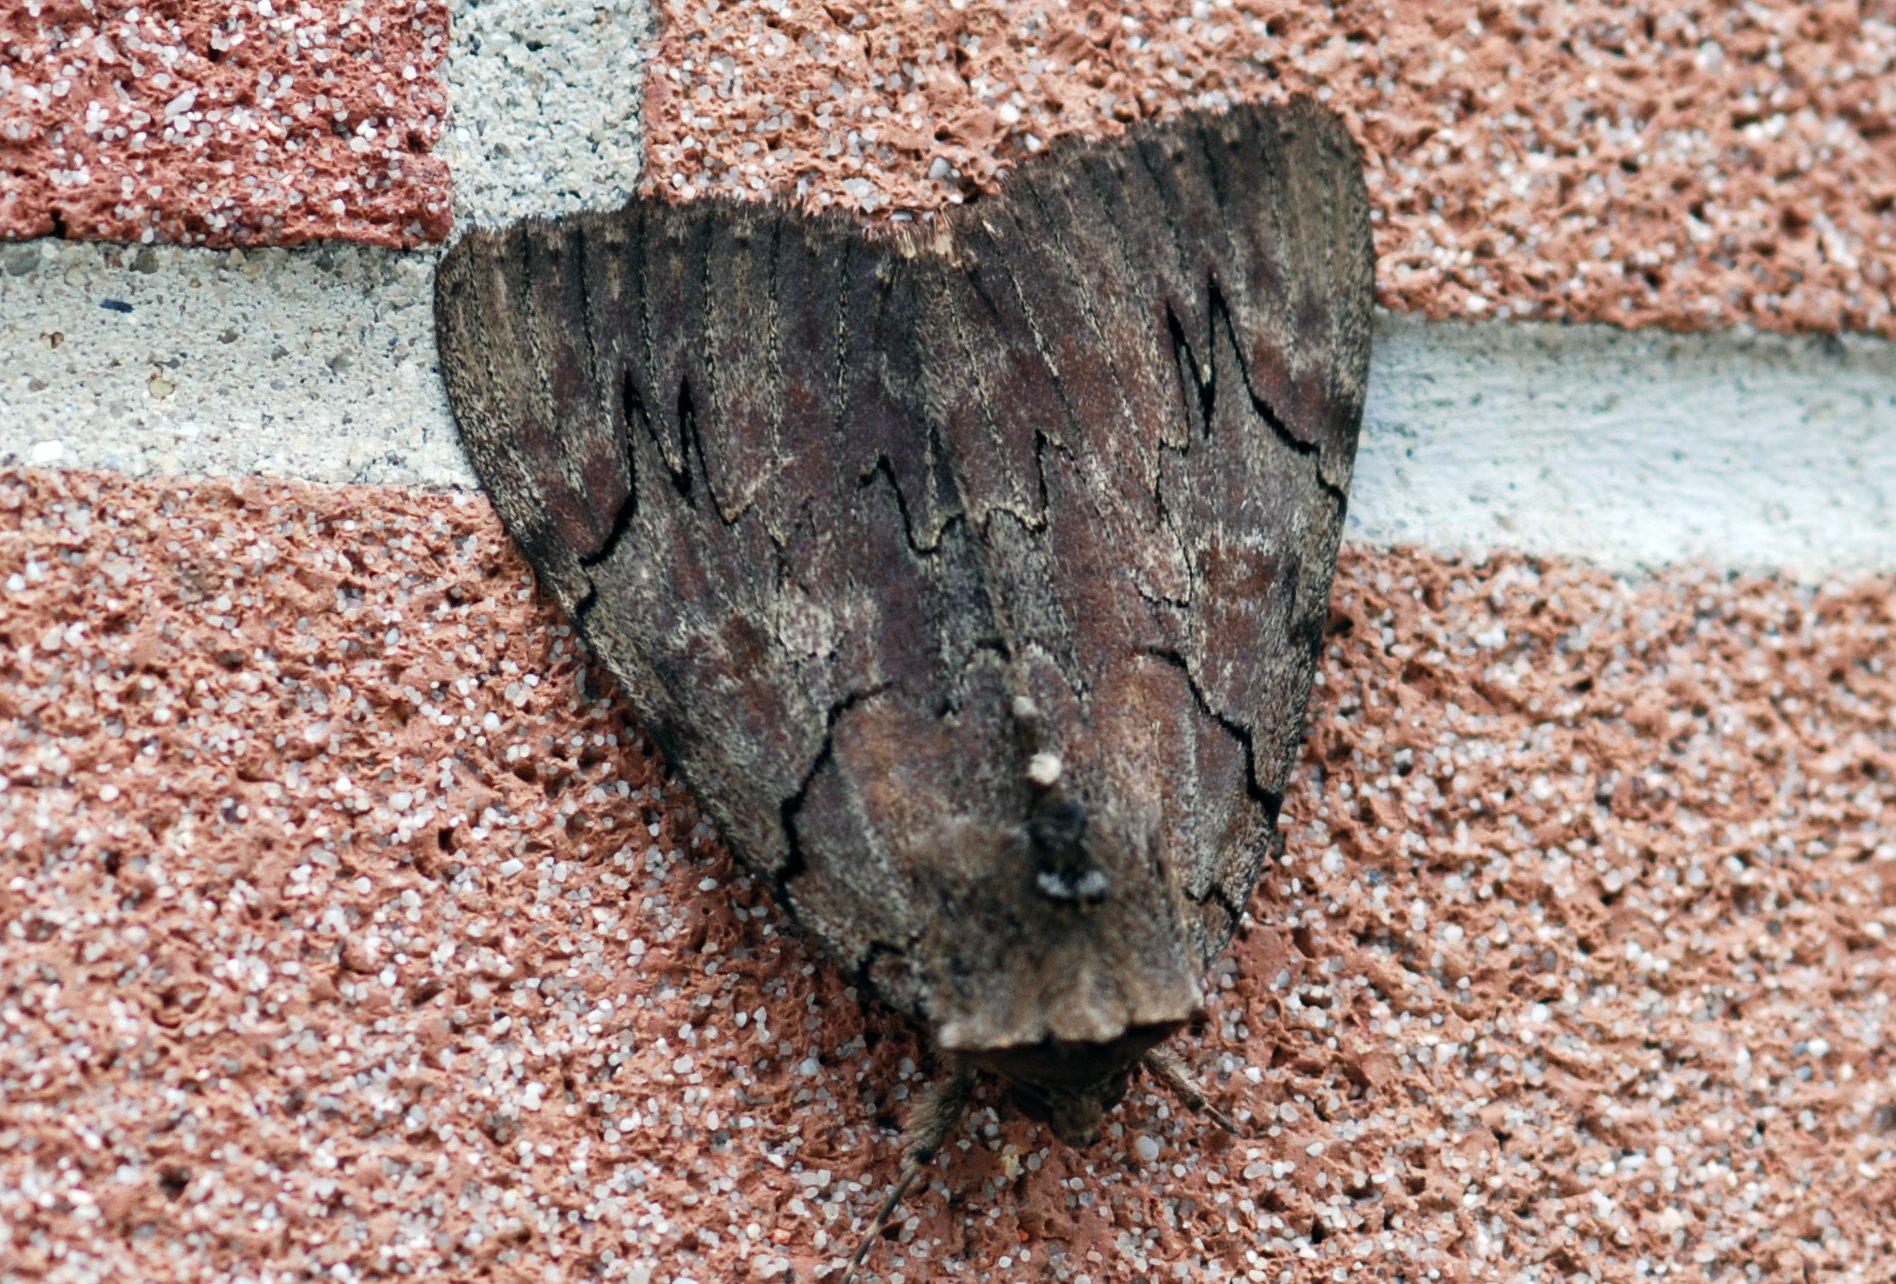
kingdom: Animalia
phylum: Arthropoda
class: Insecta
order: Lepidoptera
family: Erebidae
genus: Catocala
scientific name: Catocala cara
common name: Darling underwing
